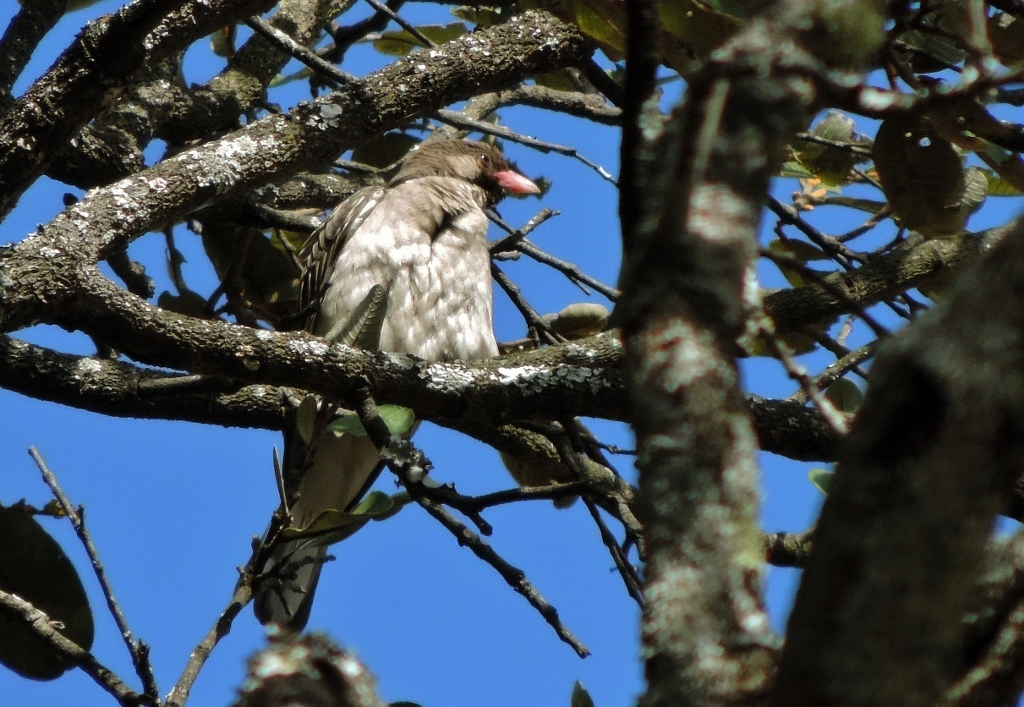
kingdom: Animalia
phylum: Chordata
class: Aves
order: Piciformes
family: Indicatoridae
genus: Indicator
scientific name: Indicator indicator
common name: Greater honeyguide
